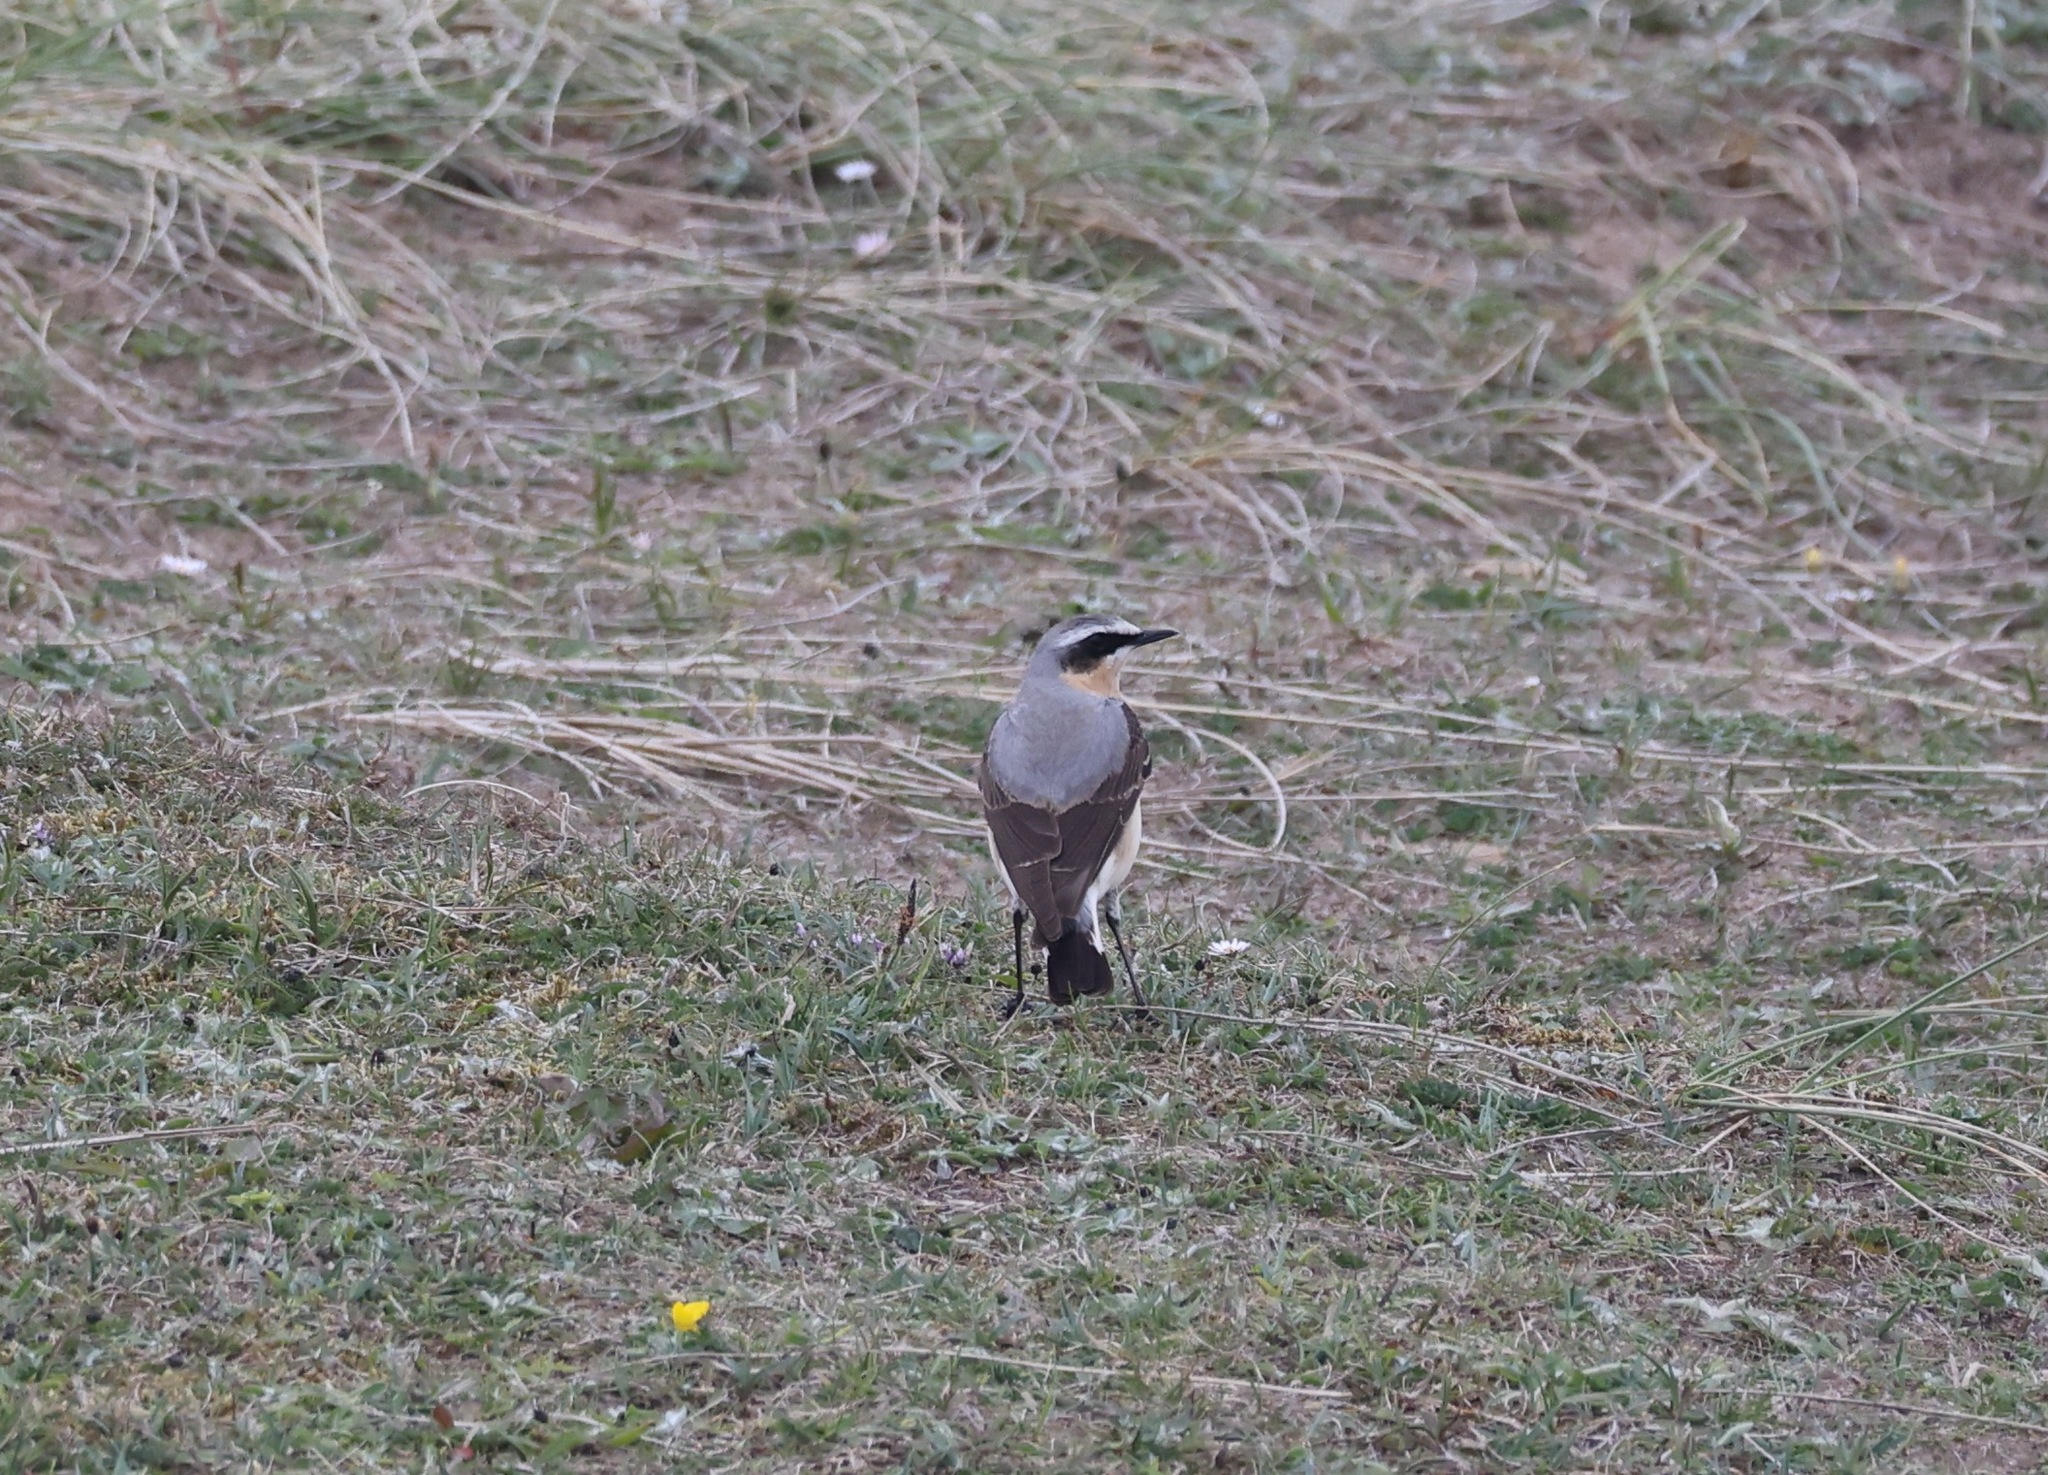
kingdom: Animalia
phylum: Chordata
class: Aves
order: Passeriformes
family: Muscicapidae
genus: Oenanthe
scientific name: Oenanthe oenanthe
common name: Northern wheatear
